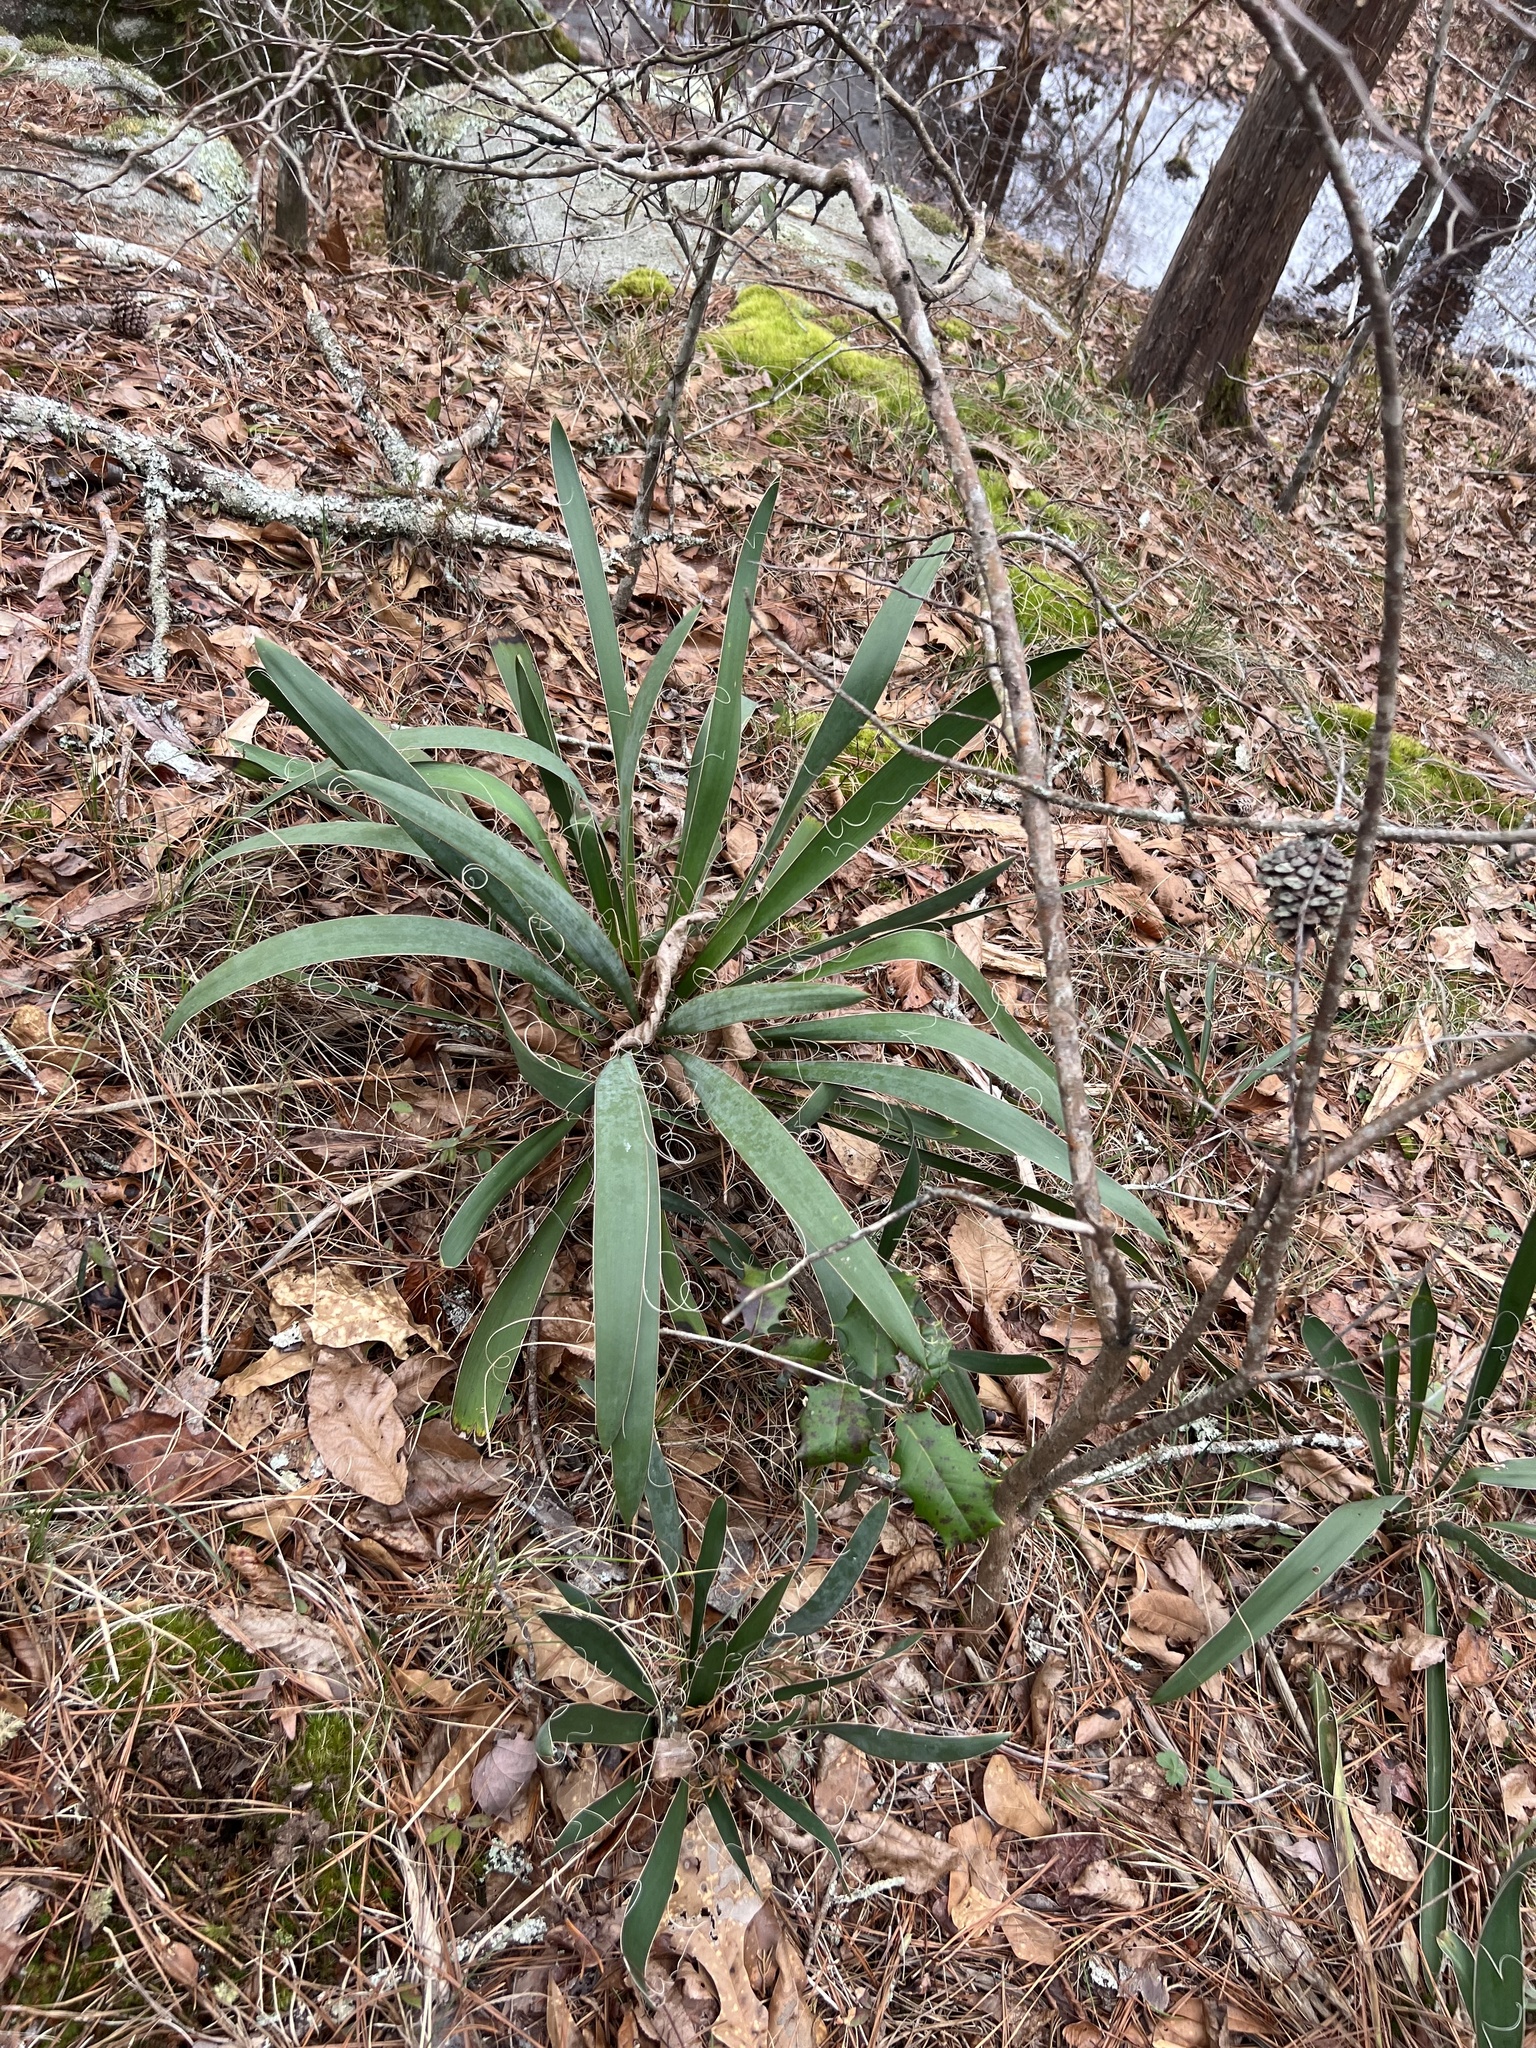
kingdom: Plantae
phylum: Tracheophyta
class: Liliopsida
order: Asparagales
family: Asparagaceae
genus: Yucca
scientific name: Yucca filamentosa
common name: Adam's-needle
